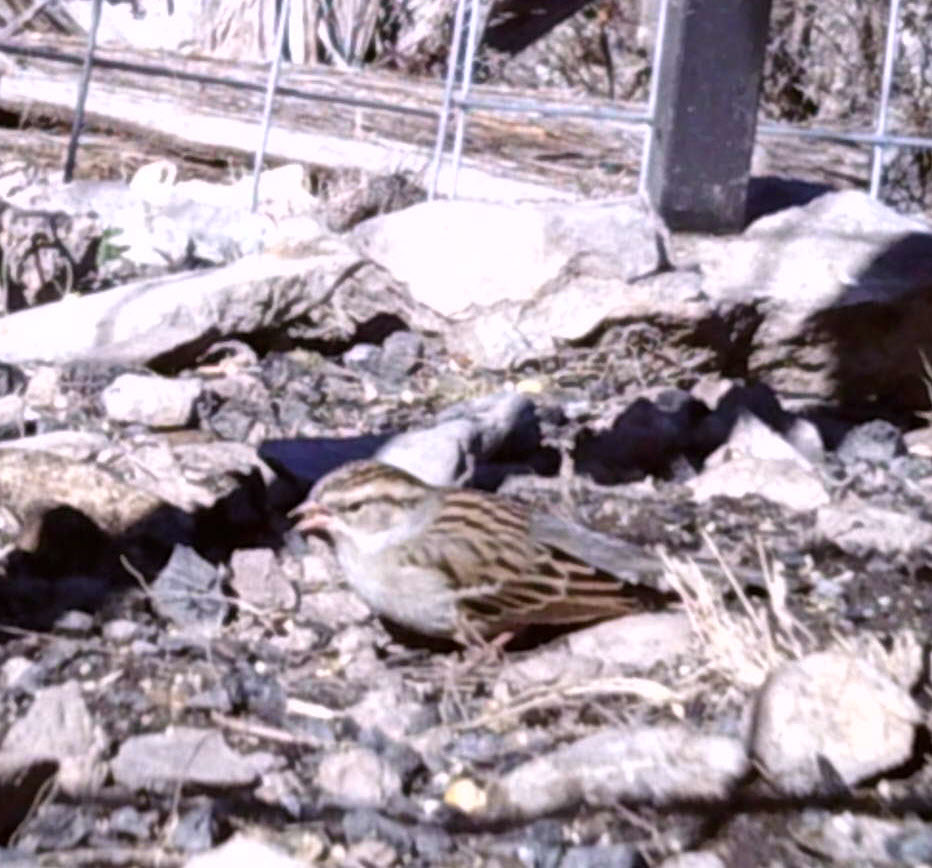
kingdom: Animalia
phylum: Chordata
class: Aves
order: Passeriformes
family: Passerellidae
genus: Spizella
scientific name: Spizella passerina
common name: Chipping sparrow
